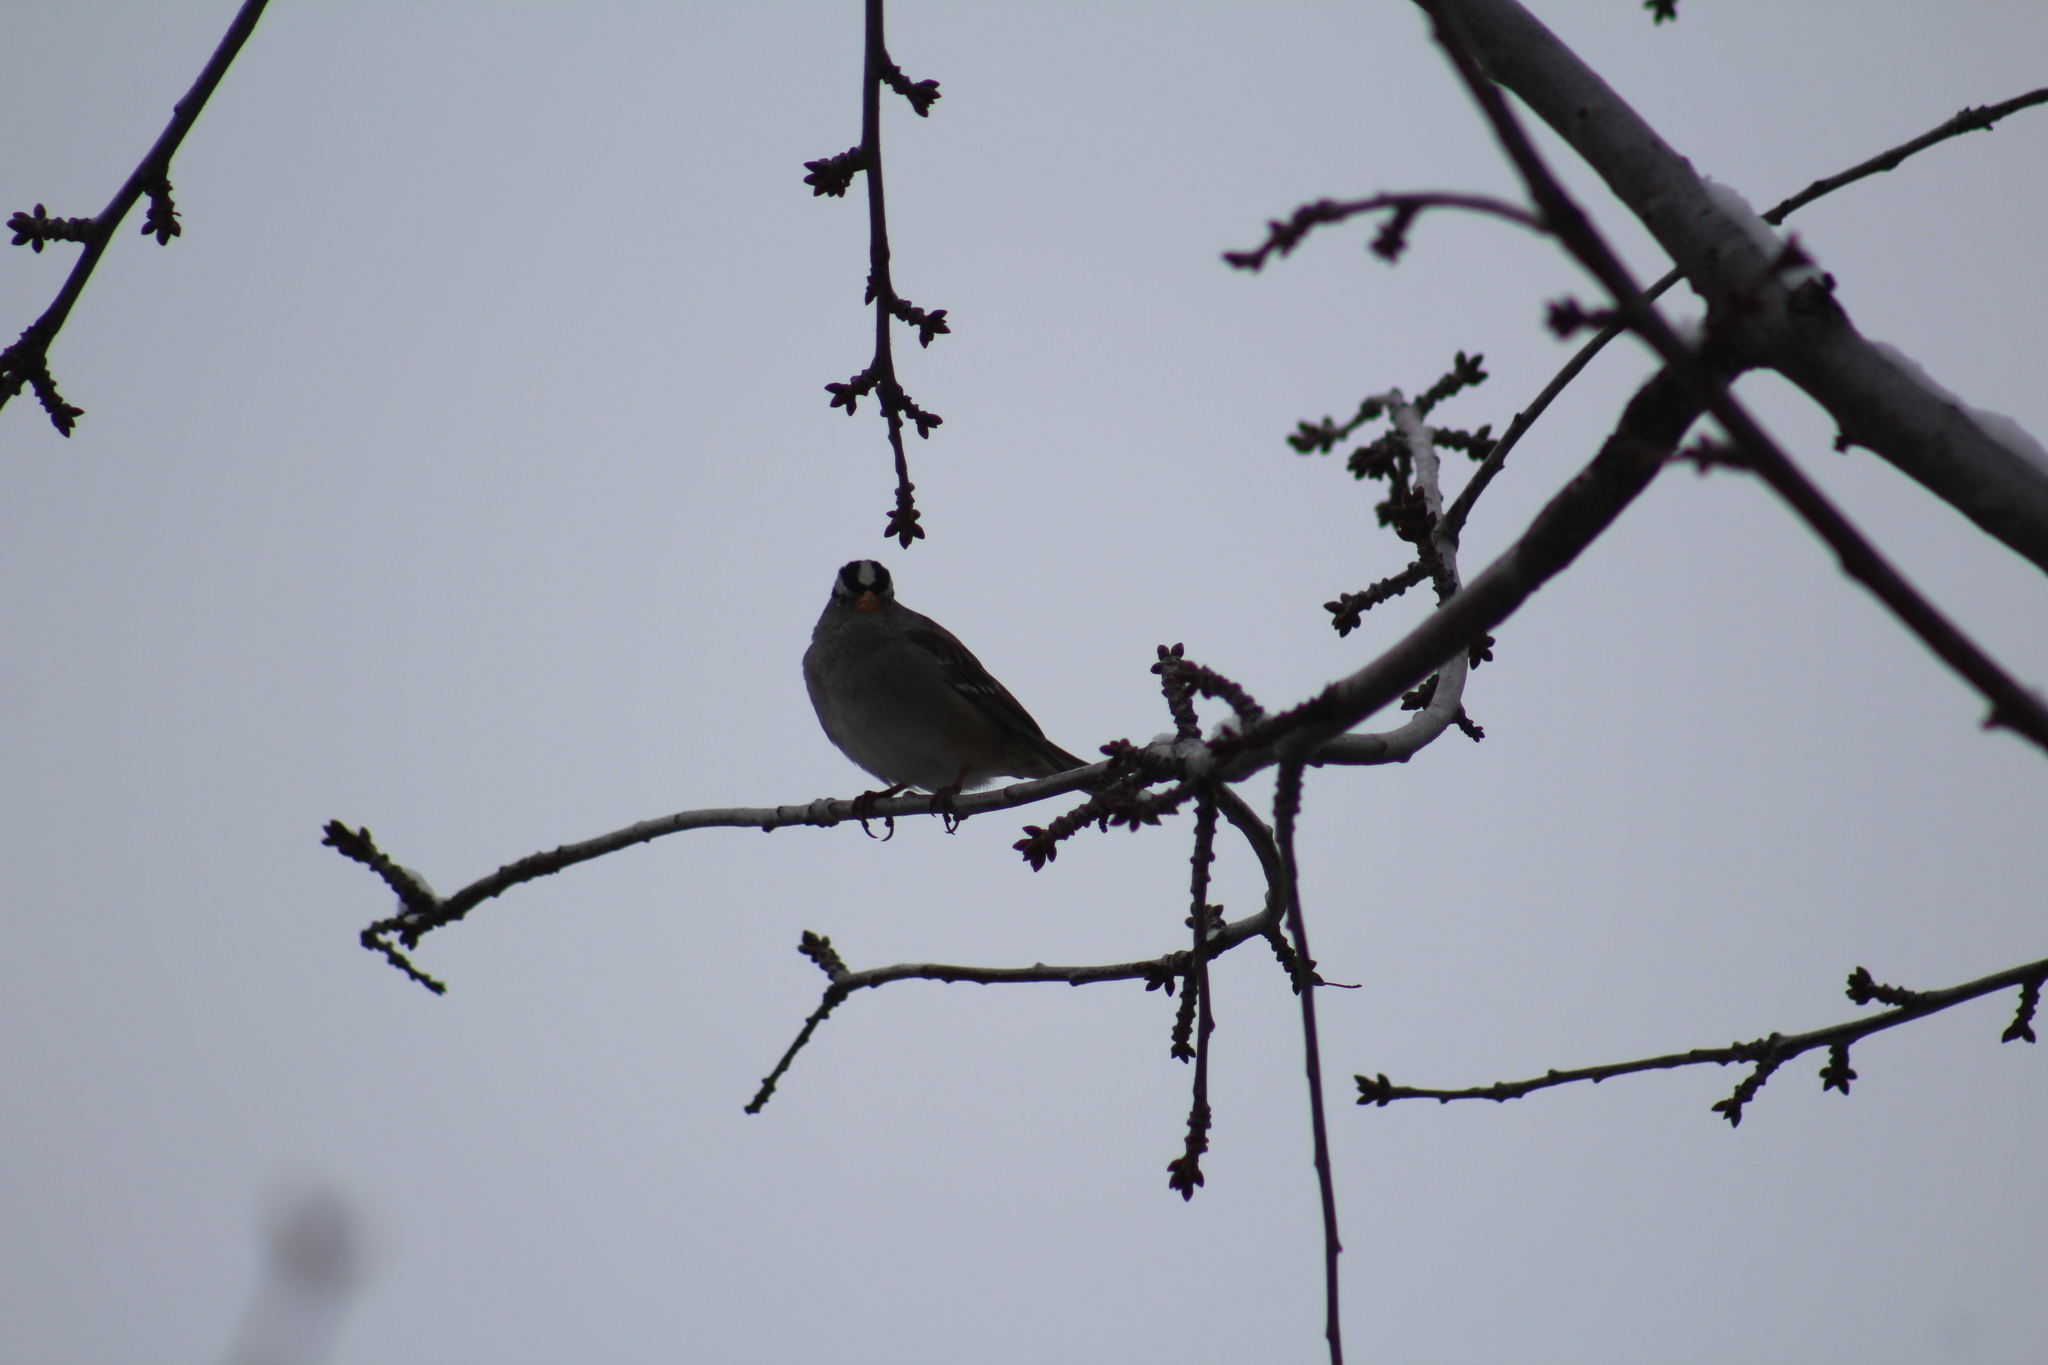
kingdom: Animalia
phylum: Chordata
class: Aves
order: Passeriformes
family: Passerellidae
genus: Zonotrichia
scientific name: Zonotrichia leucophrys
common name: White-crowned sparrow
